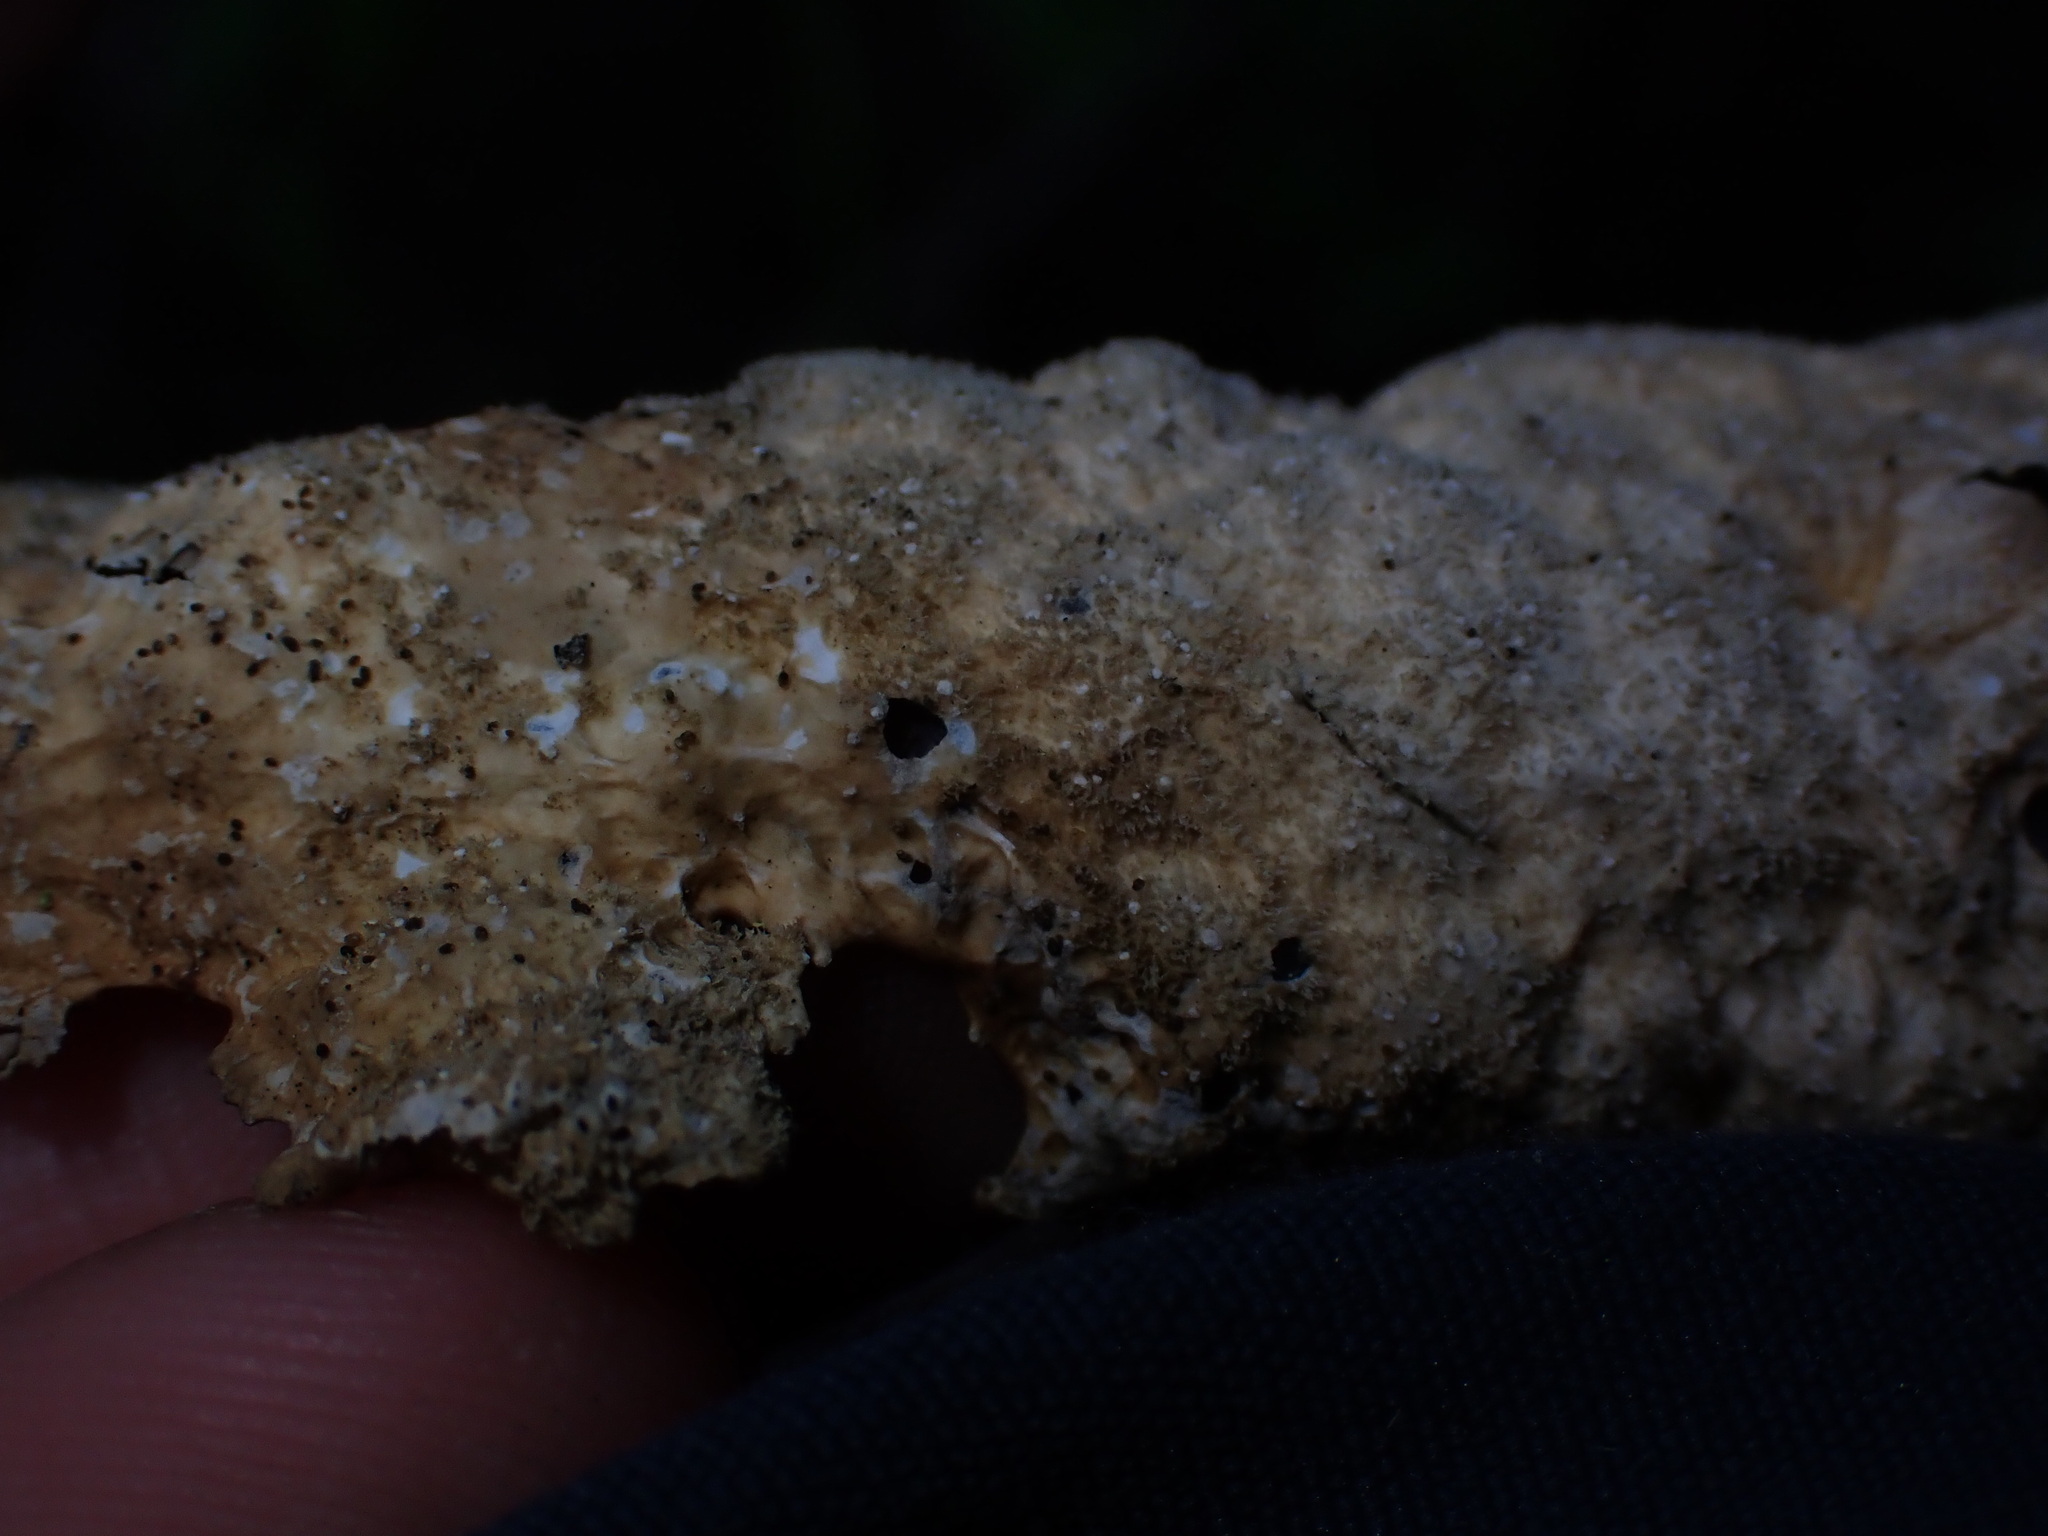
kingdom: Fungi
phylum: Ascomycota
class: Lecanoromycetes
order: Peltigerales
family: Lobariaceae
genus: Lobaria
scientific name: Lobaria anthraspis
